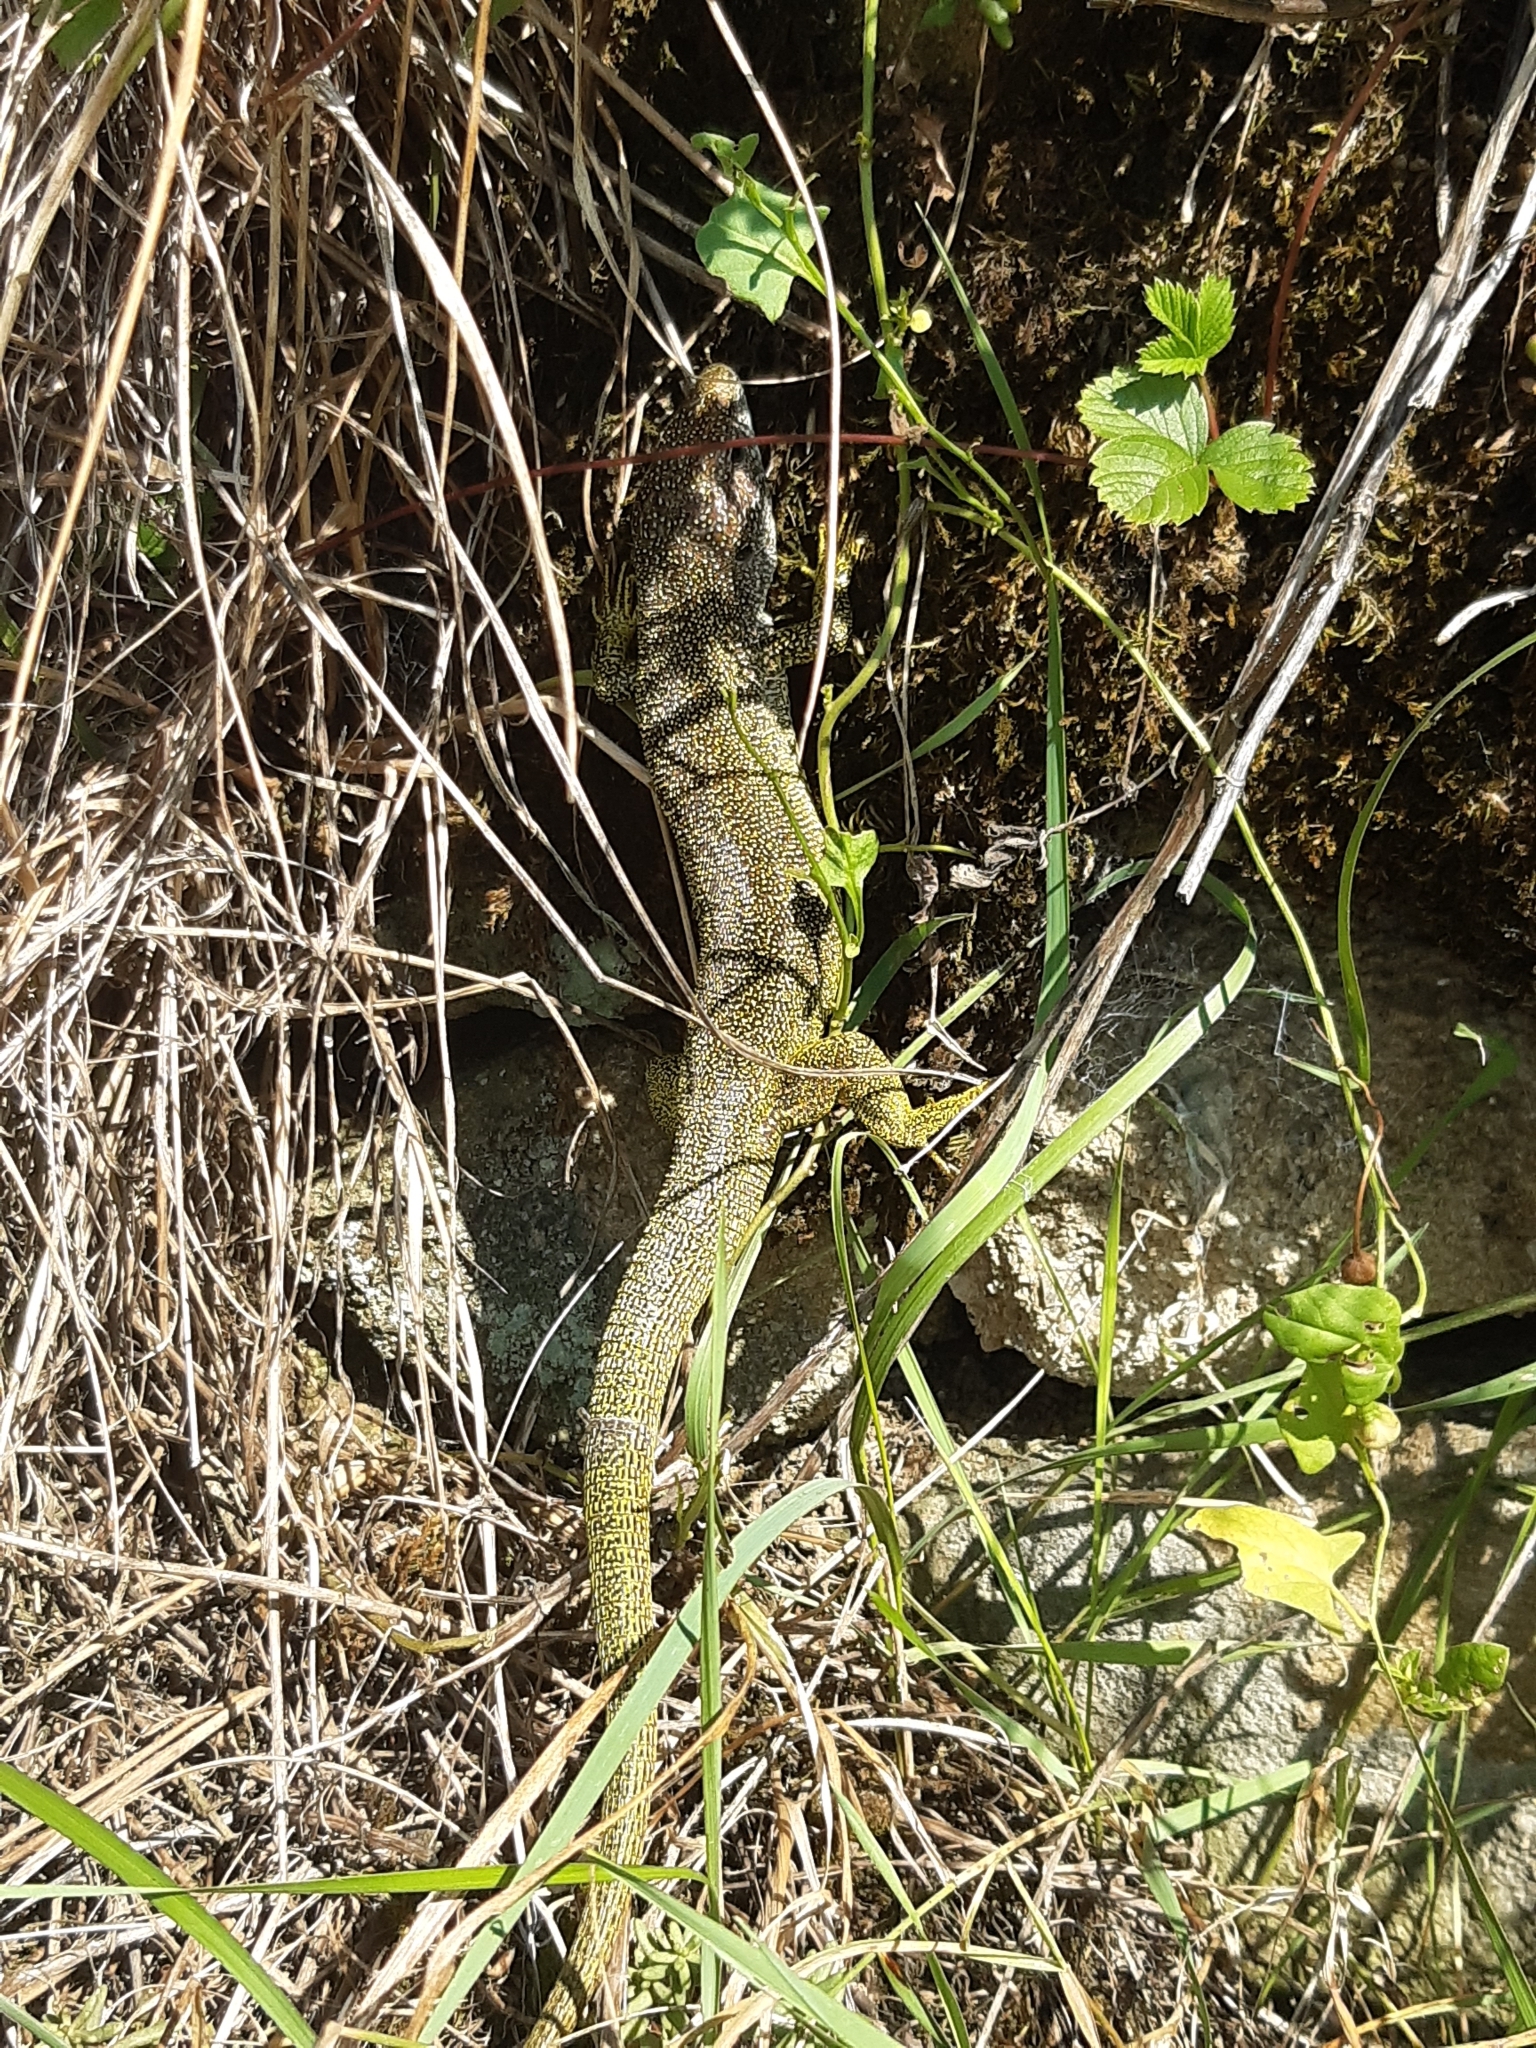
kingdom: Animalia
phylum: Chordata
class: Squamata
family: Lacertidae
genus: Lacerta
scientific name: Lacerta viridis
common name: European green lizard
